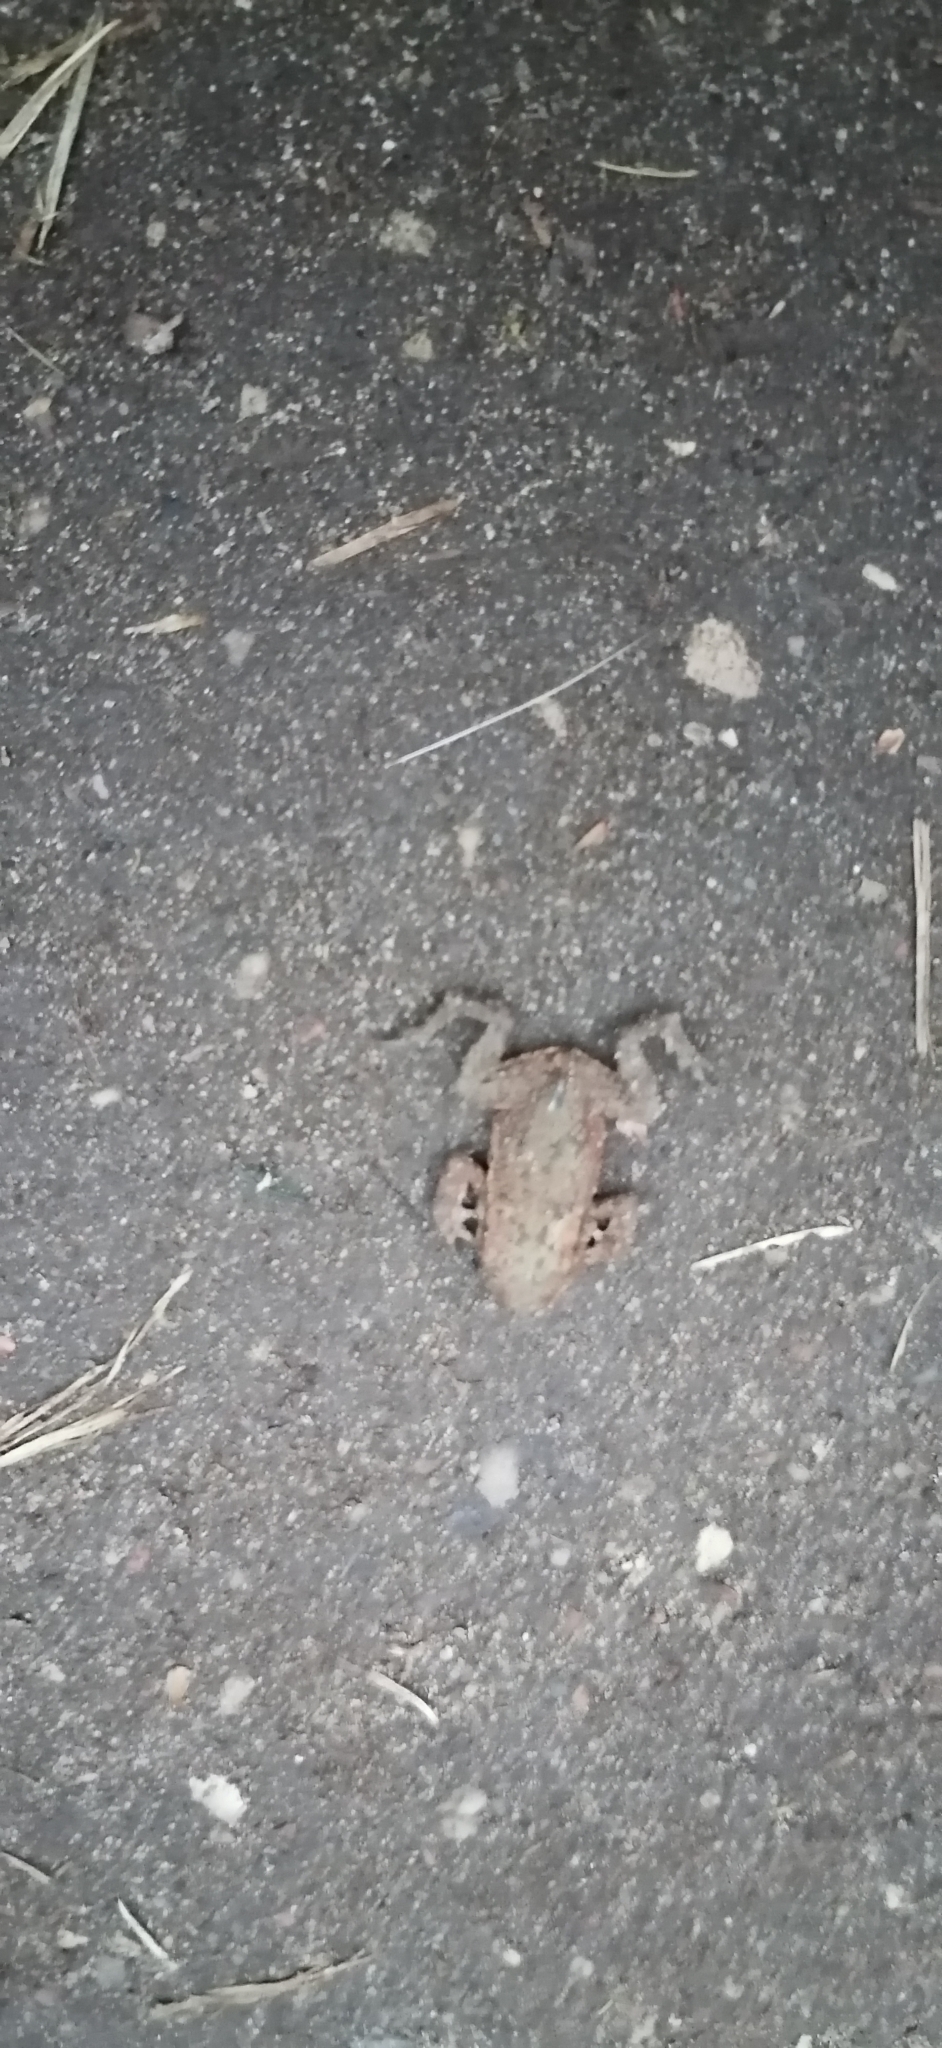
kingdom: Animalia
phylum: Chordata
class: Amphibia
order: Anura
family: Bufonidae
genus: Bufo
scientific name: Bufo bufo
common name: Common toad
